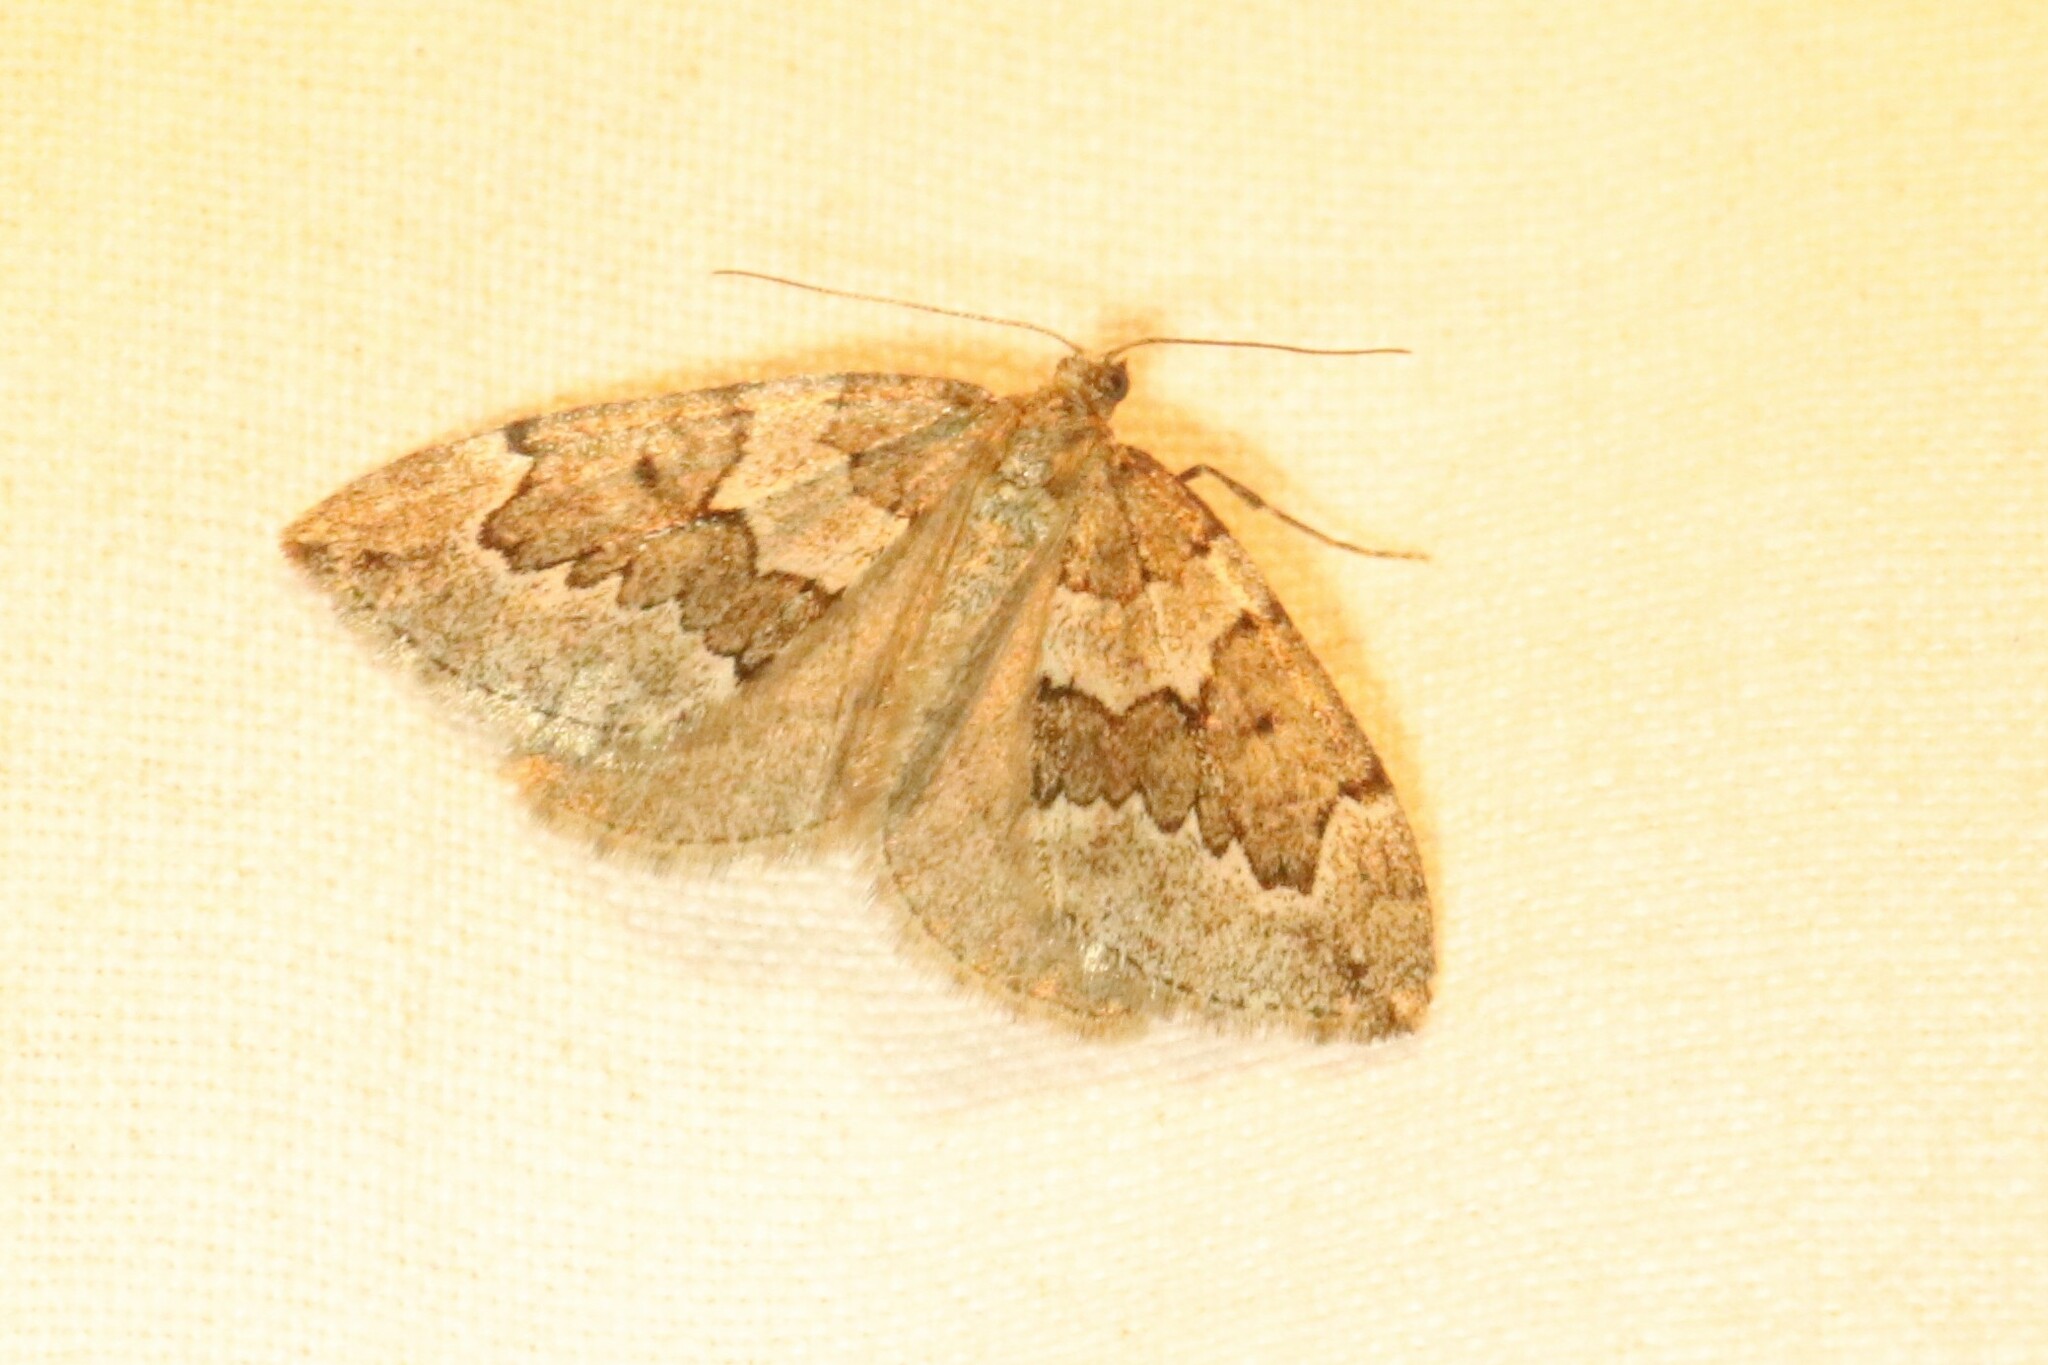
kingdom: Animalia
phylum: Arthropoda
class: Insecta
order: Lepidoptera
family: Geometridae
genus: Thera
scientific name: Thera juniperata
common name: Juniper carpet
